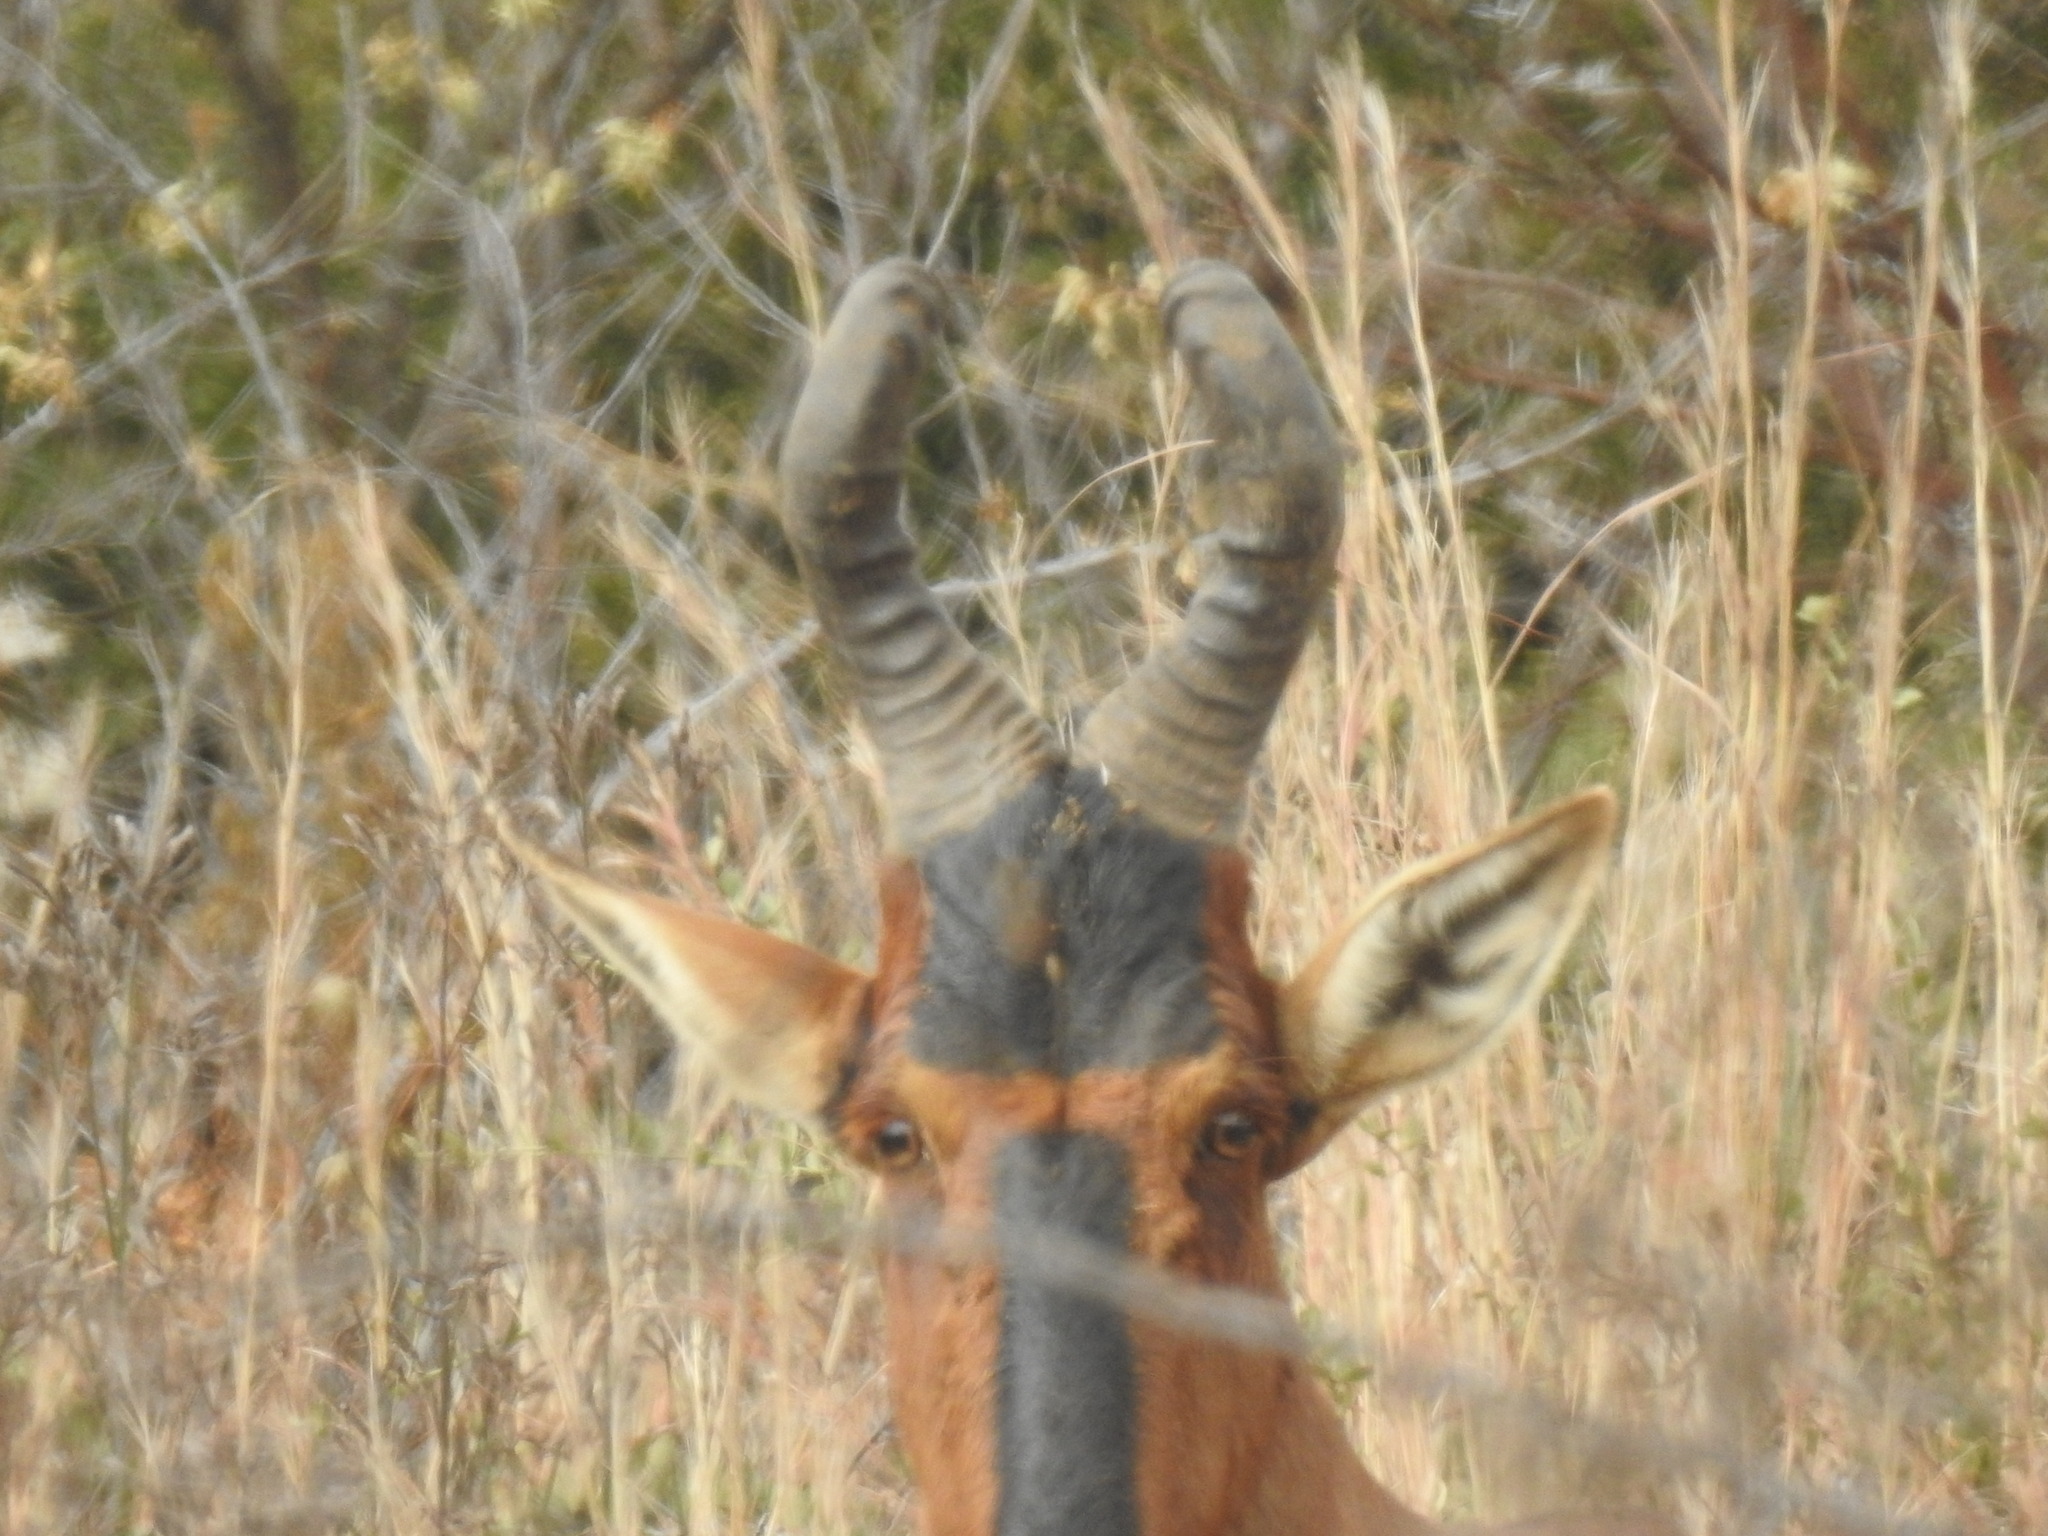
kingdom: Animalia
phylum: Chordata
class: Mammalia
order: Artiodactyla
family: Bovidae
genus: Alcelaphus
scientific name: Alcelaphus caama
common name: Red hartebeest
